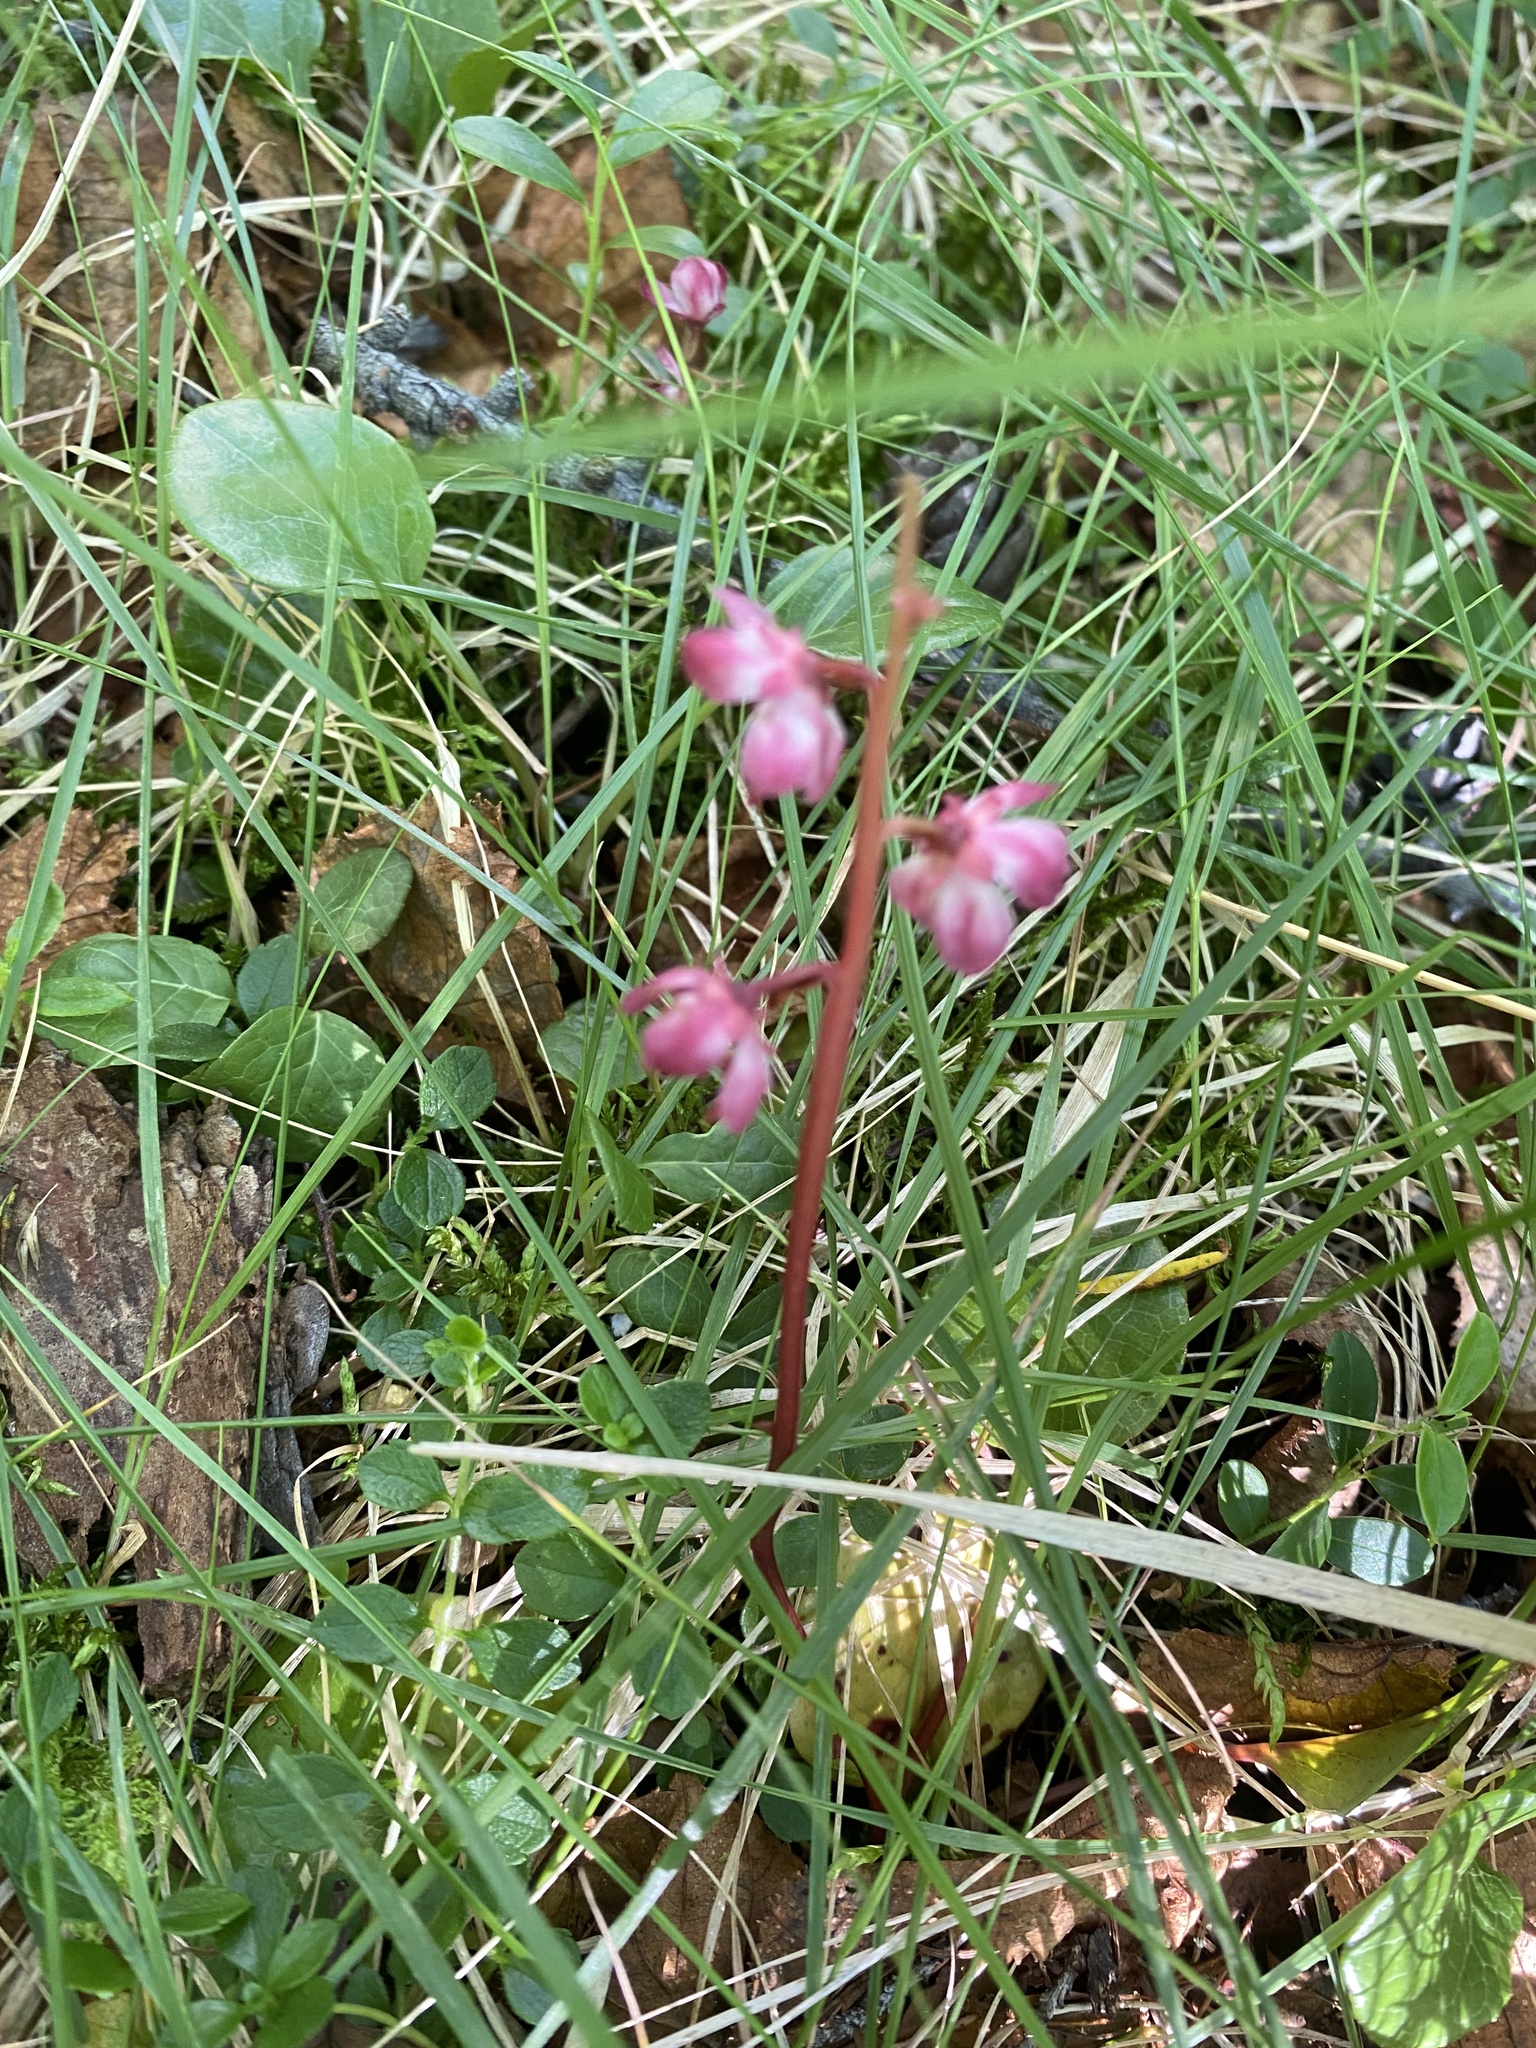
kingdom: Plantae
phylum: Tracheophyta
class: Magnoliopsida
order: Ericales
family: Ericaceae
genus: Pyrola
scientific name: Pyrola asarifolia
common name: Bog wintergreen
